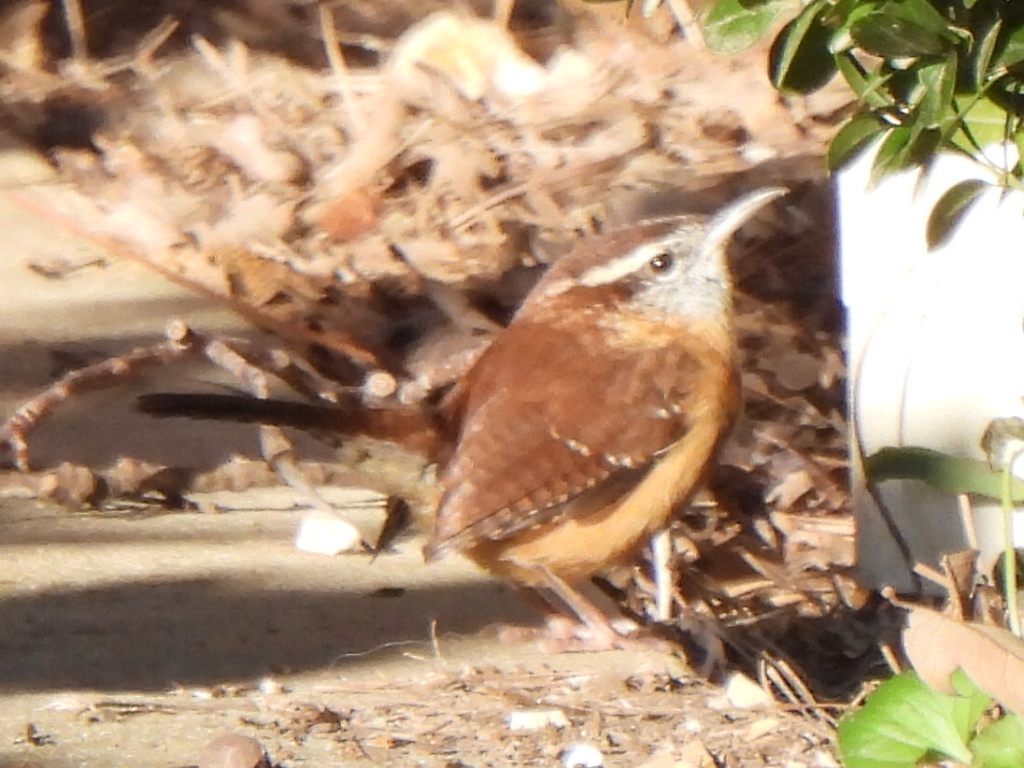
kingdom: Animalia
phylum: Chordata
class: Aves
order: Passeriformes
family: Troglodytidae
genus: Thryothorus
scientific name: Thryothorus ludovicianus
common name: Carolina wren
